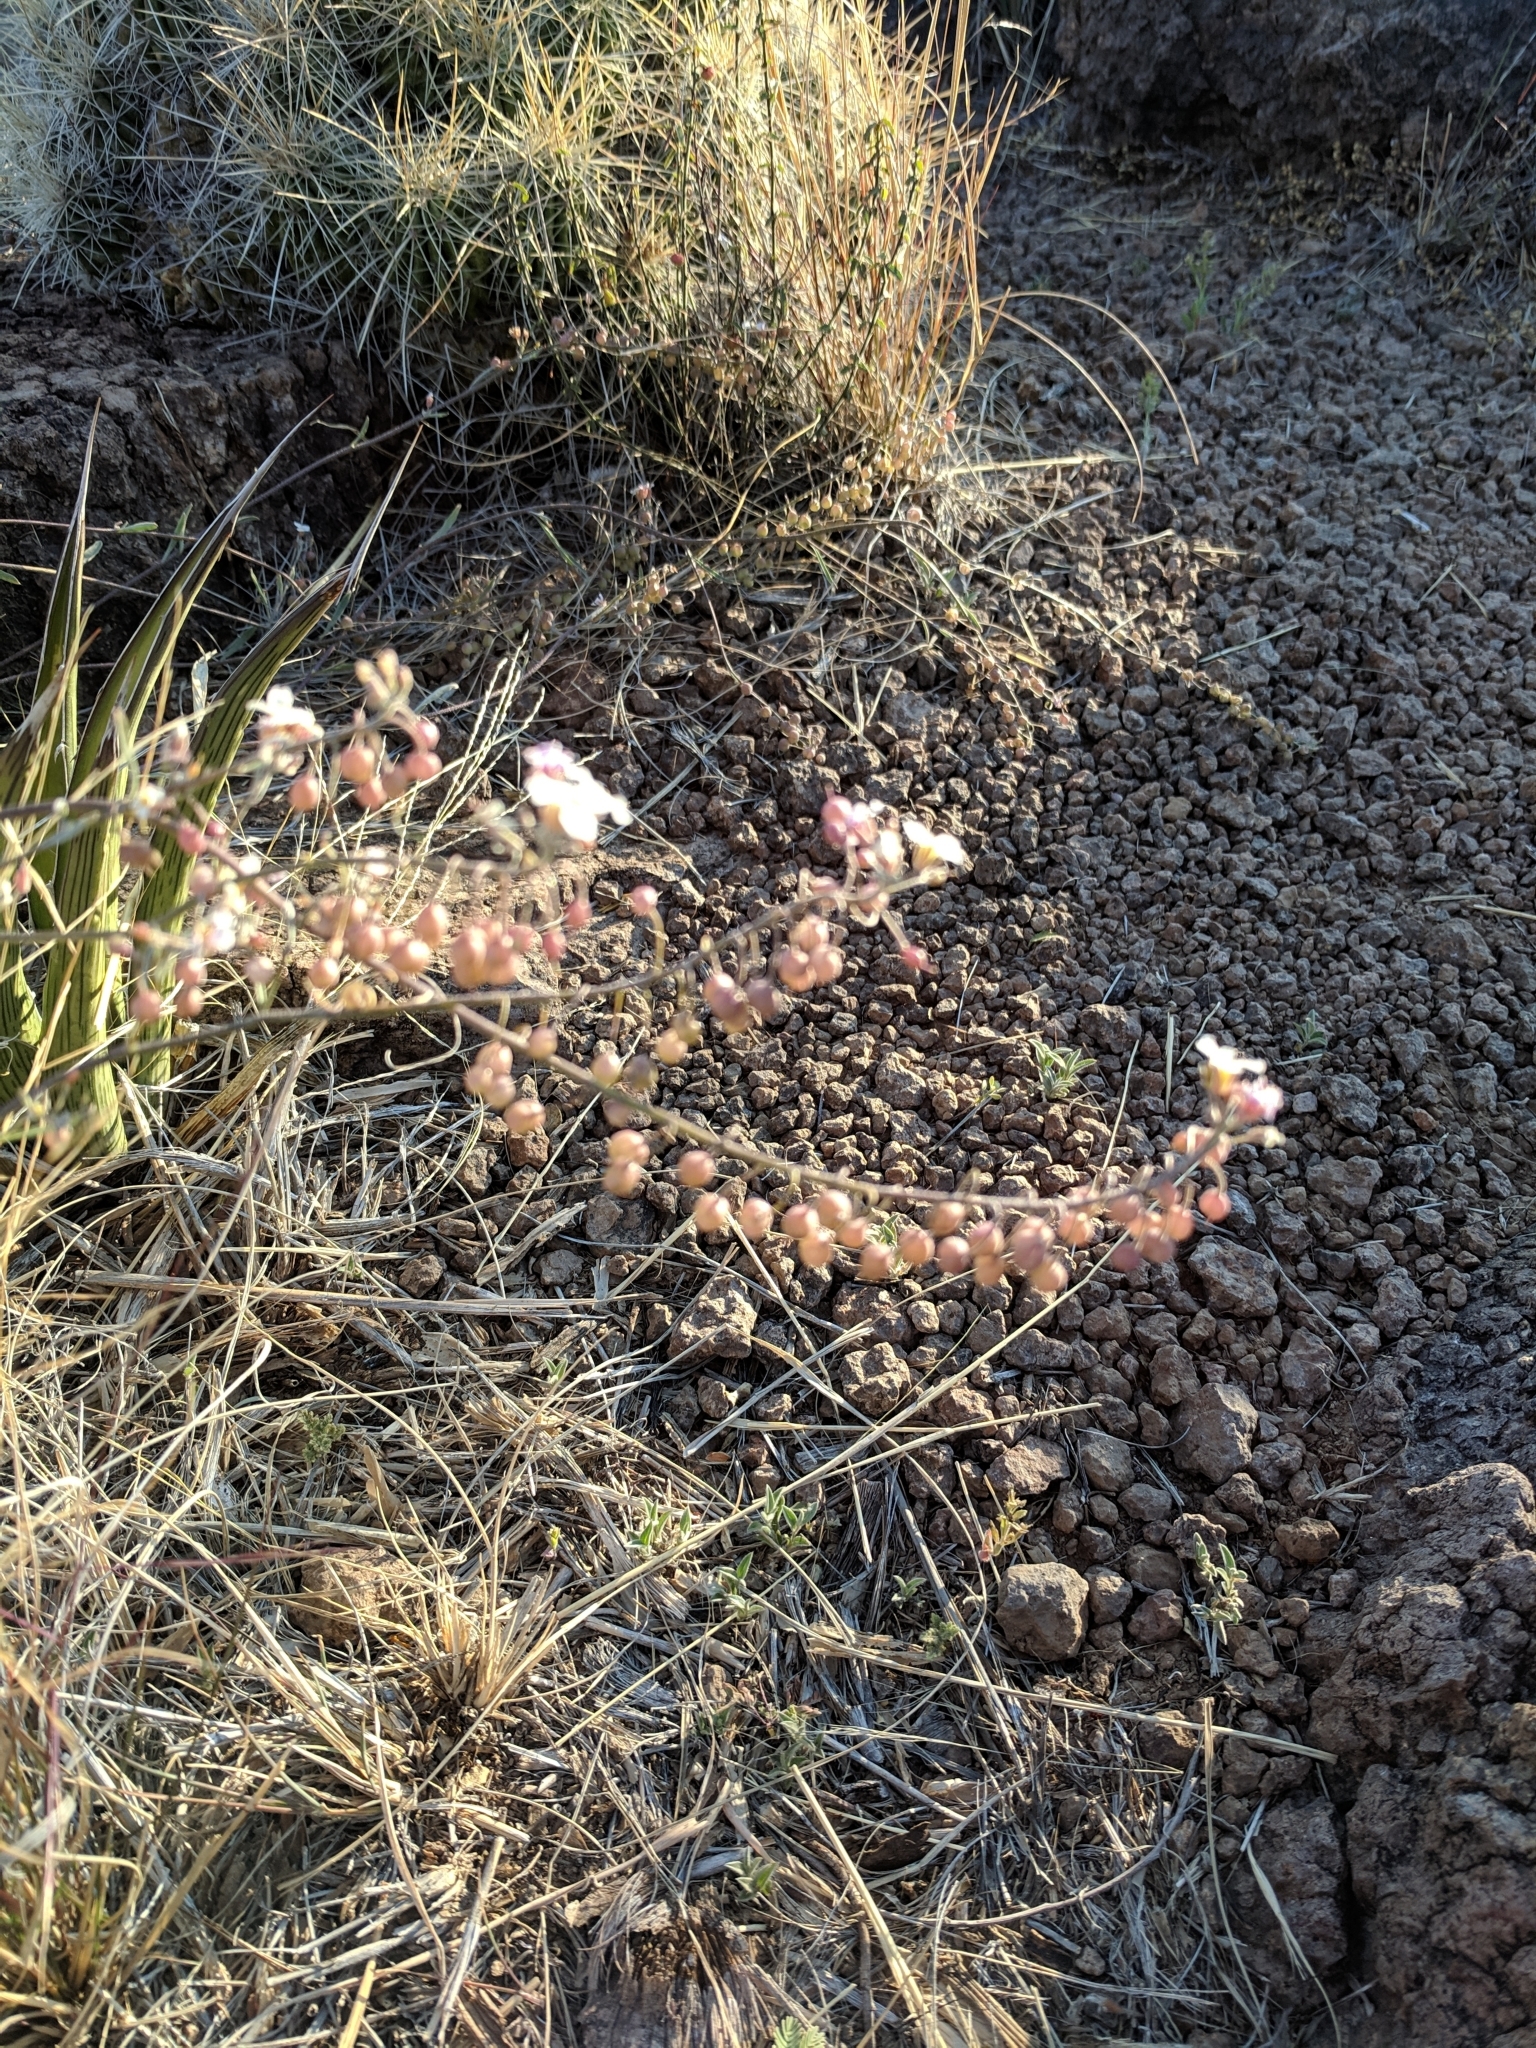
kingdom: Plantae
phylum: Tracheophyta
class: Magnoliopsida
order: Brassicales
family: Brassicaceae
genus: Physaria
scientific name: Physaria purpurea
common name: Rose bladderpod
